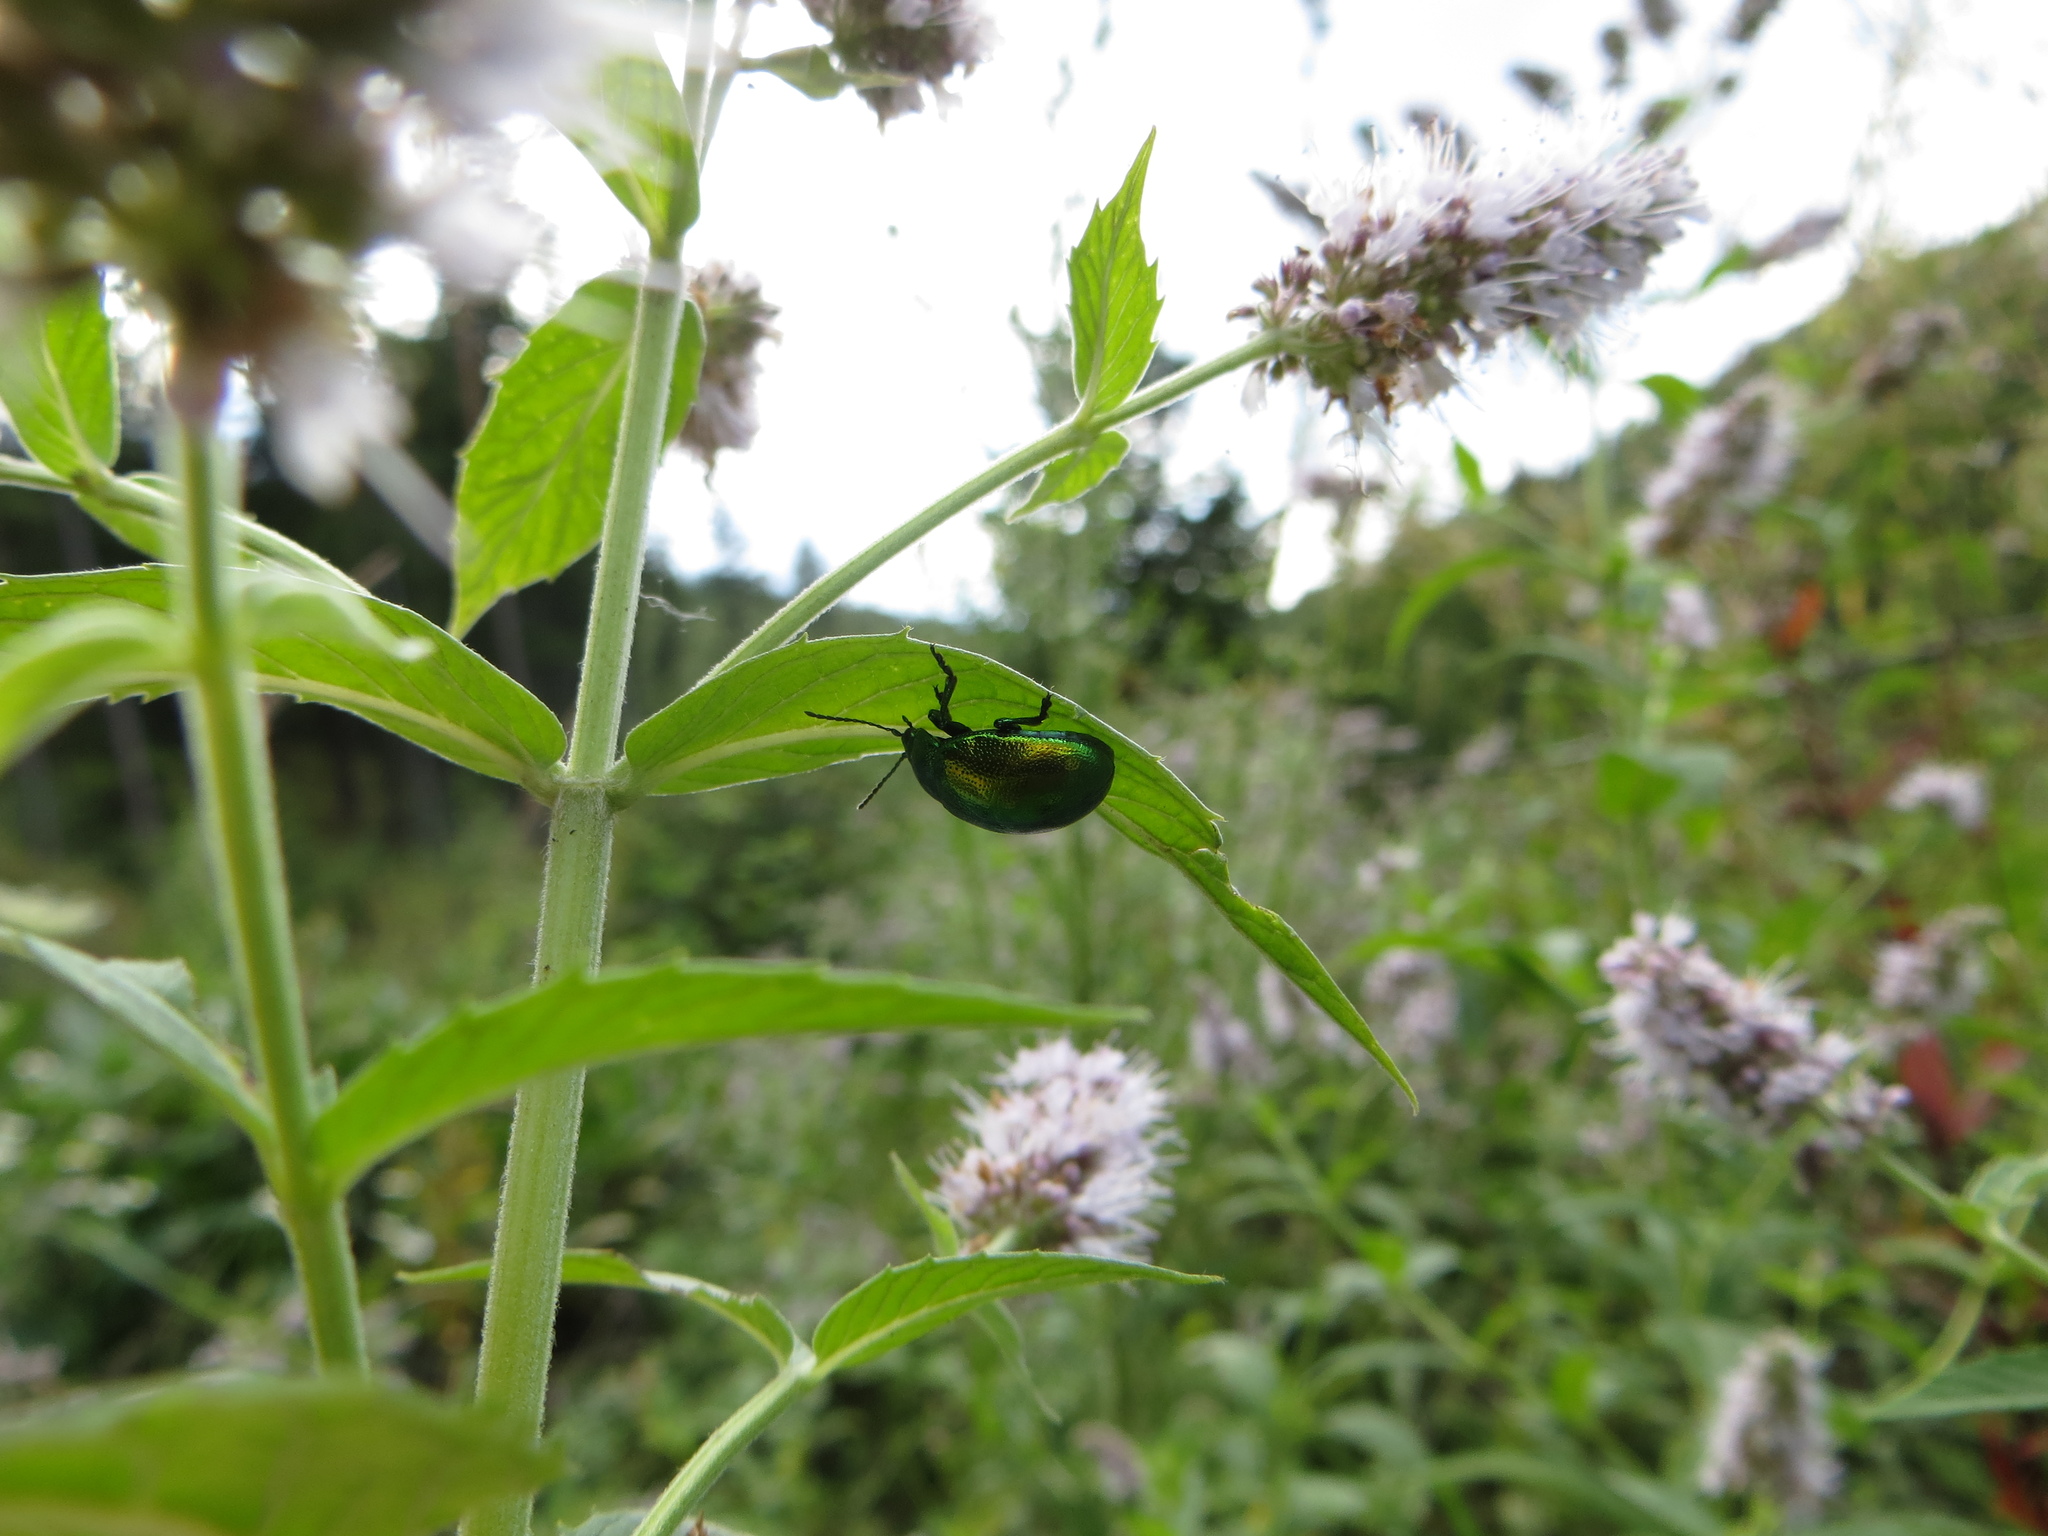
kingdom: Animalia
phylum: Arthropoda
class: Insecta
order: Coleoptera
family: Chrysomelidae
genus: Chrysolina
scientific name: Chrysolina herbacea
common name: Mint leaf beatle
